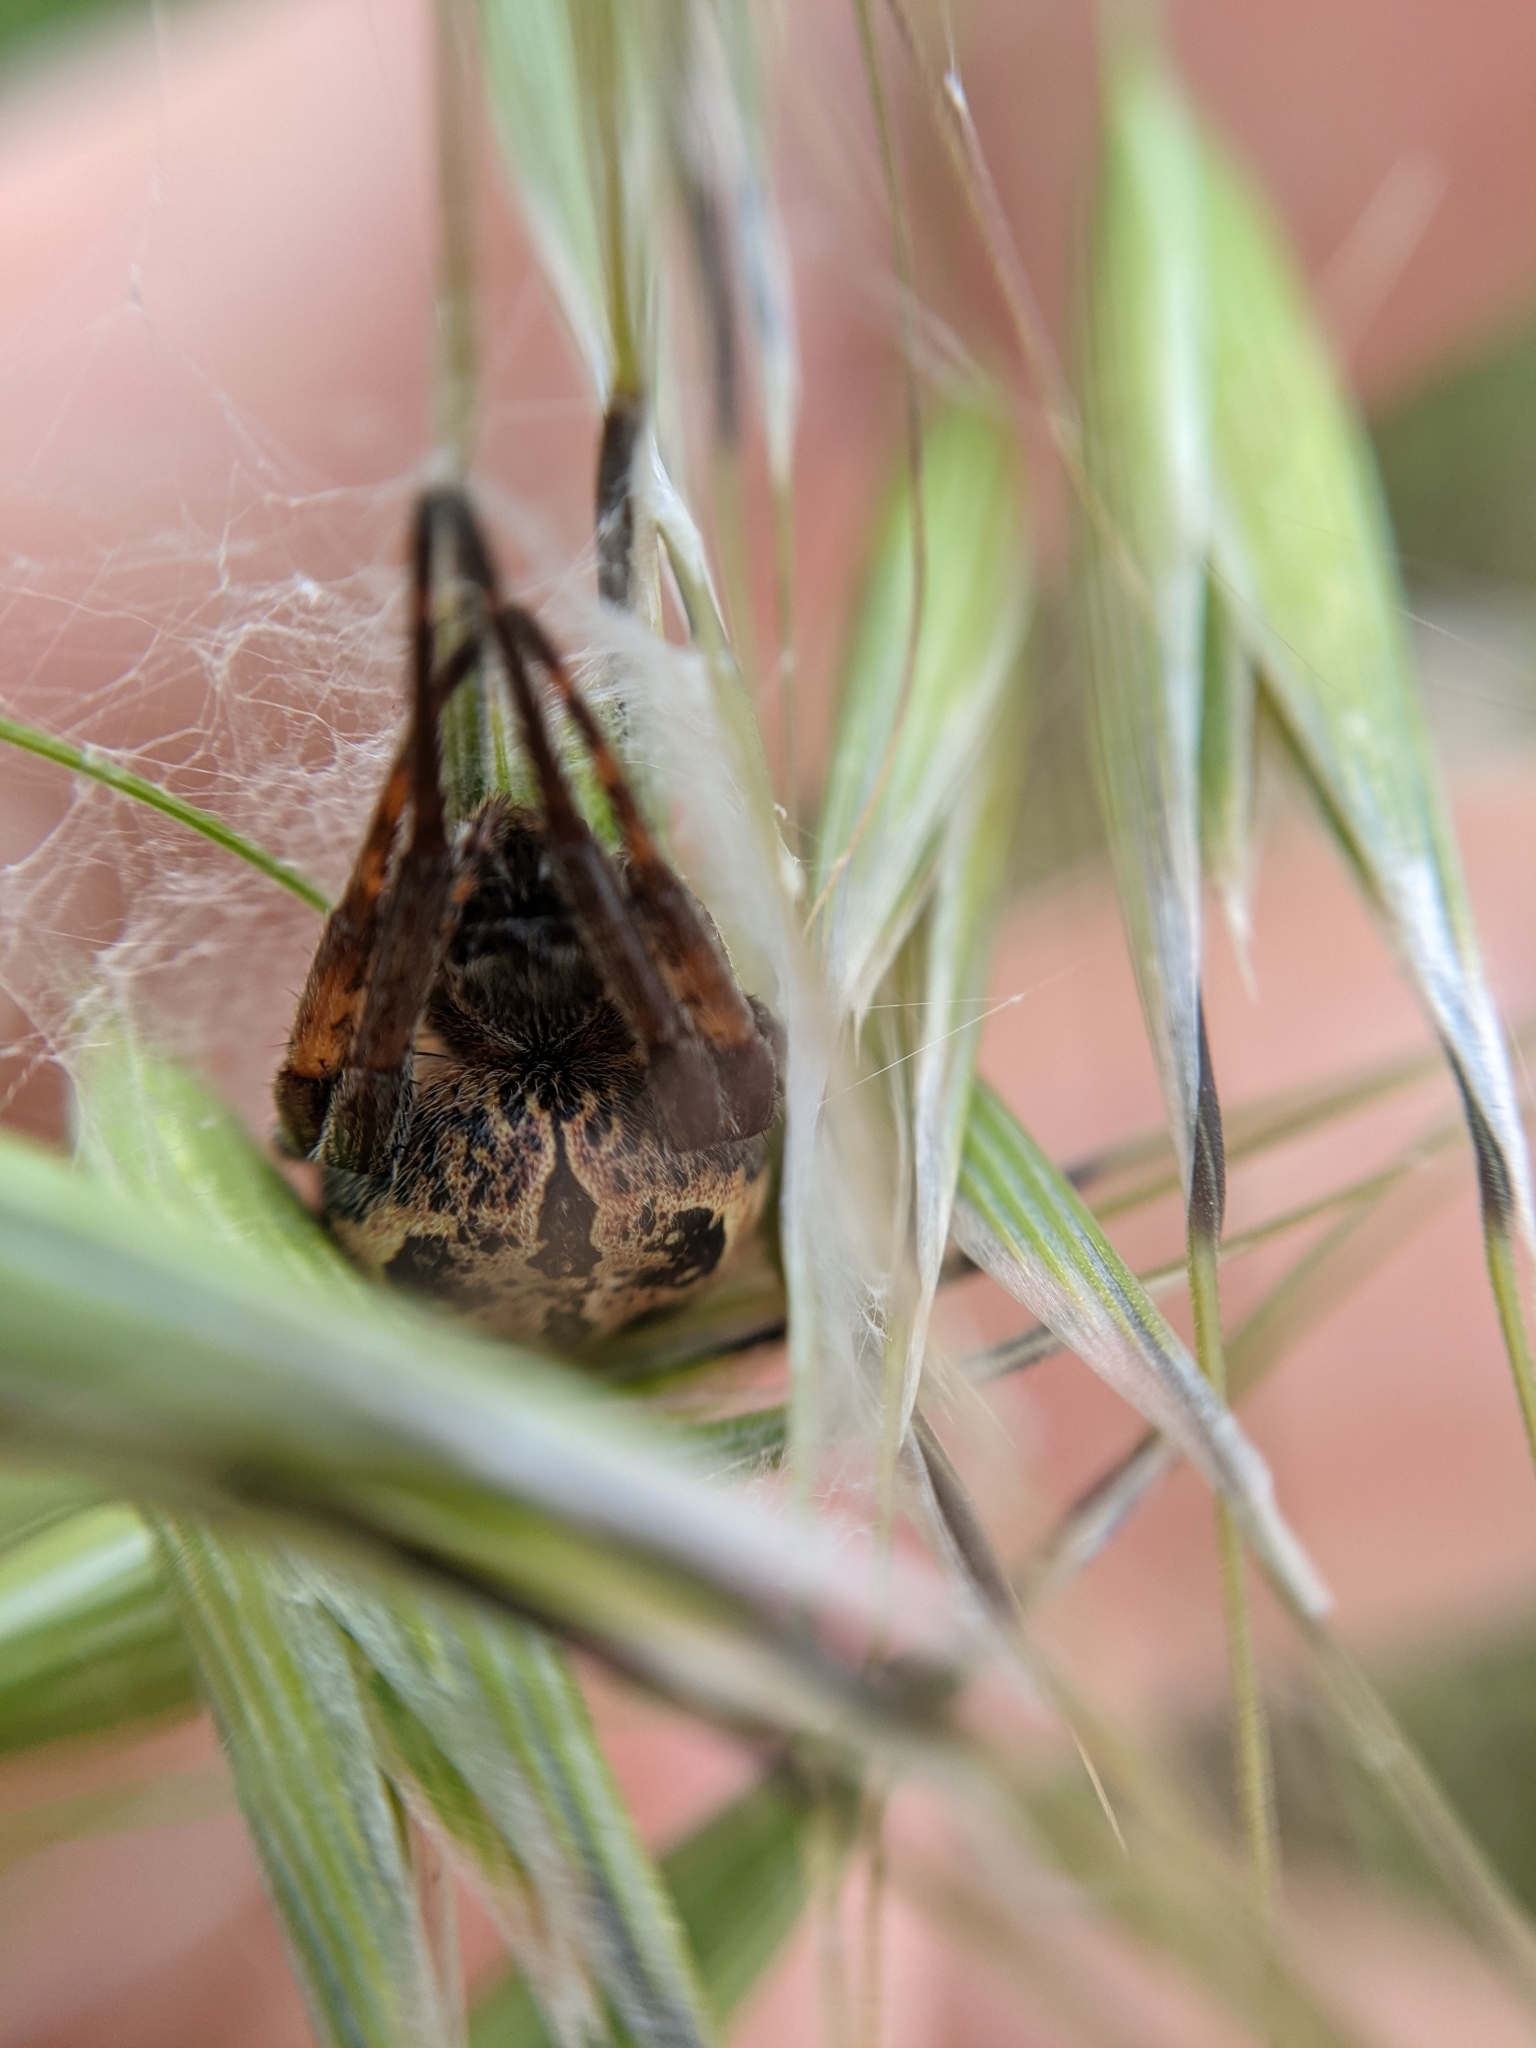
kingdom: Animalia
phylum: Arthropoda
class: Arachnida
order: Araneae
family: Araneidae
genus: Larinioides
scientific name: Larinioides cornutus
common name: Furrow orbweaver
